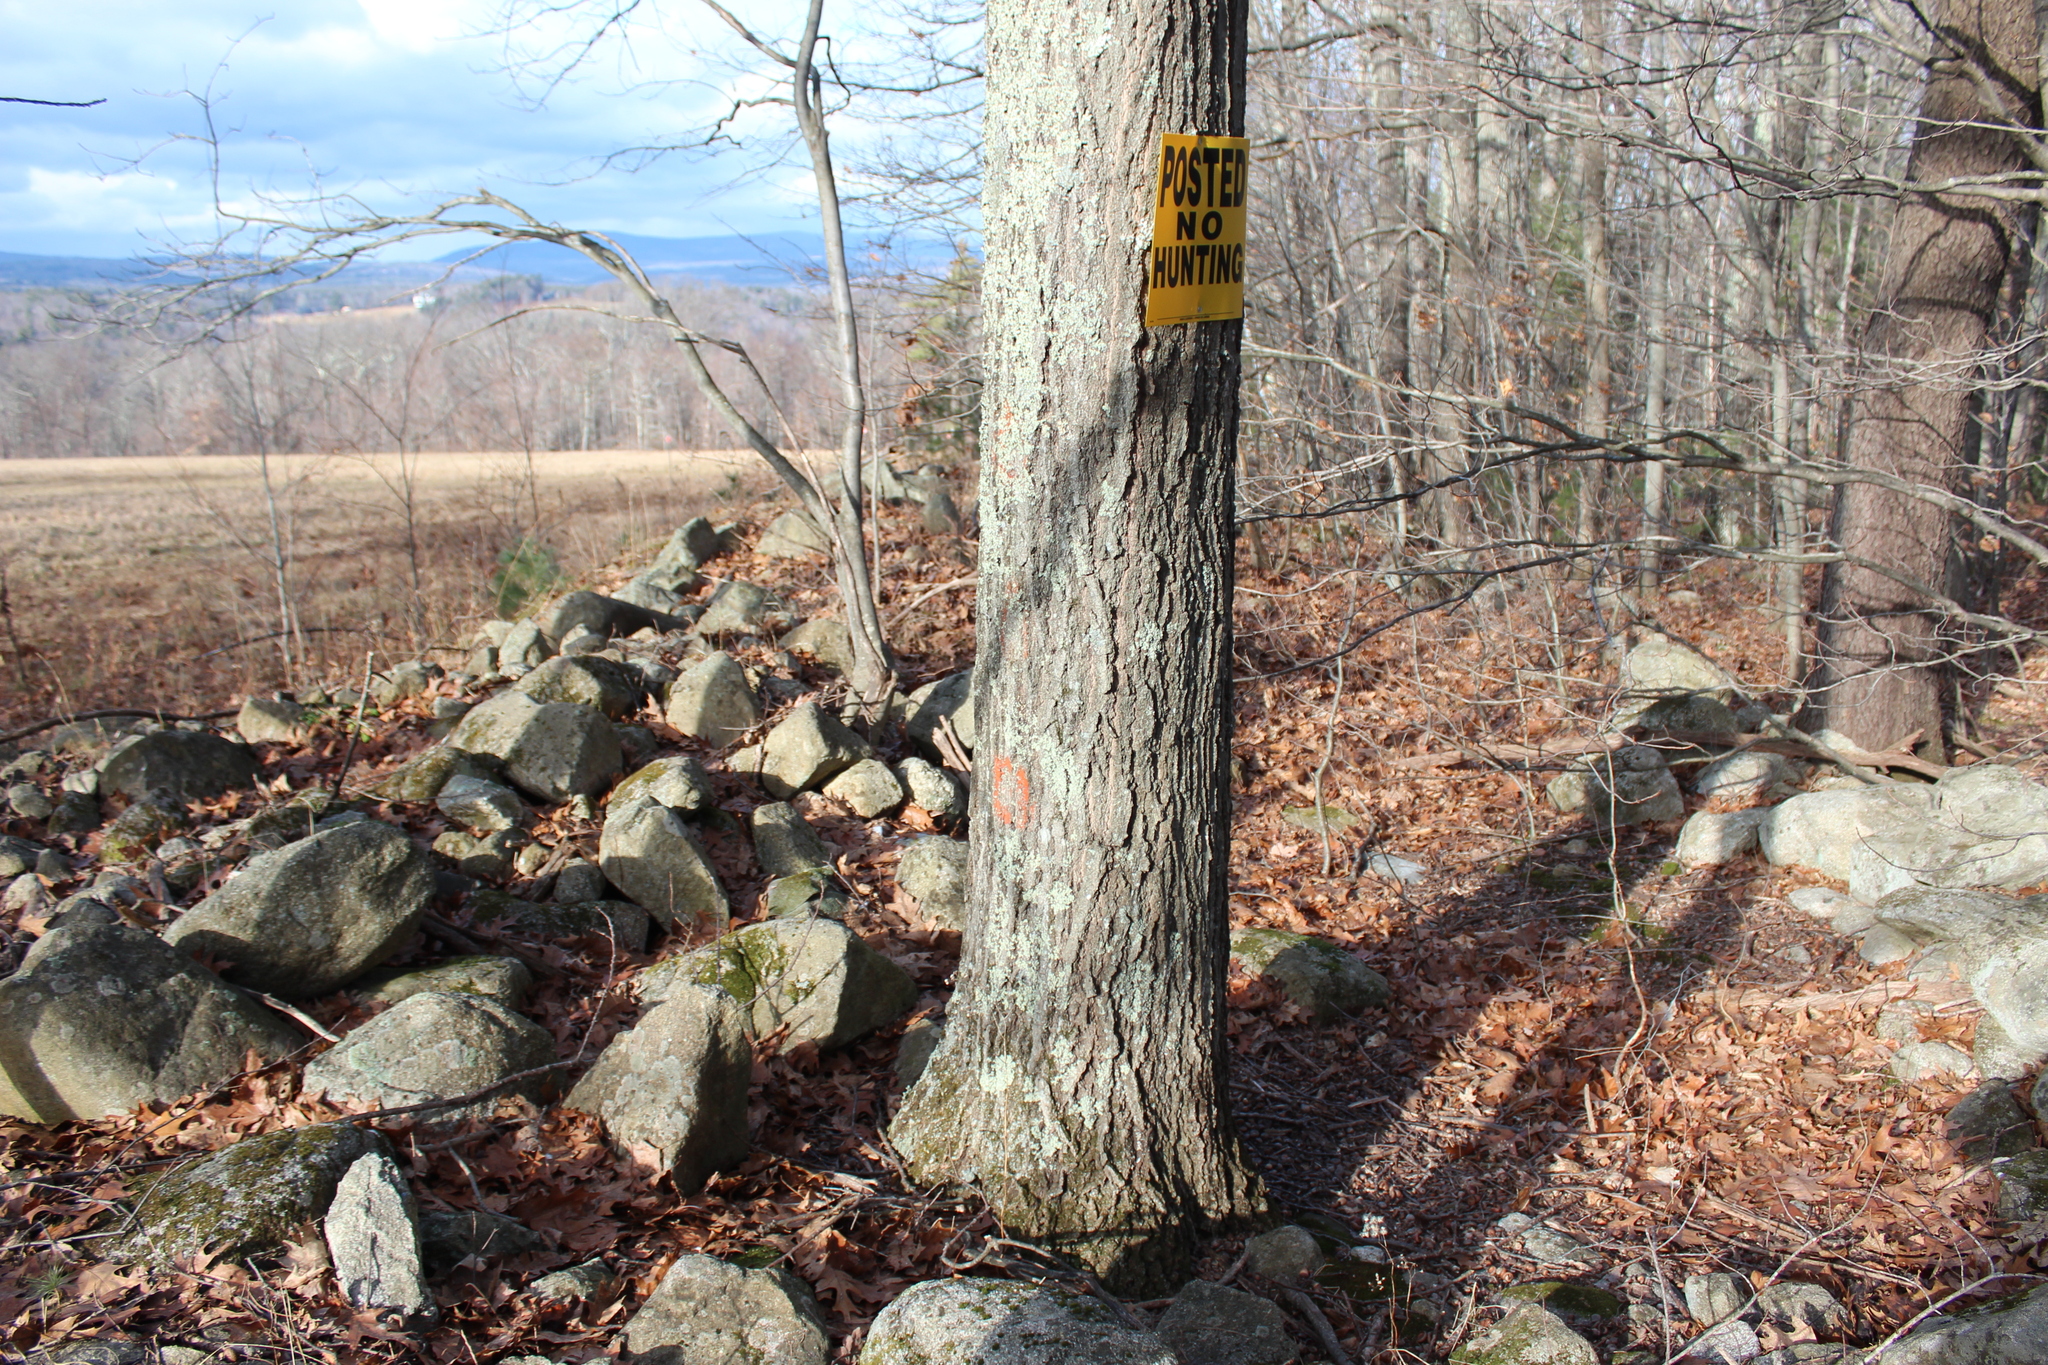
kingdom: Plantae
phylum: Tracheophyta
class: Magnoliopsida
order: Fagales
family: Fagaceae
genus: Quercus
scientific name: Quercus rubra
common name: Red oak
